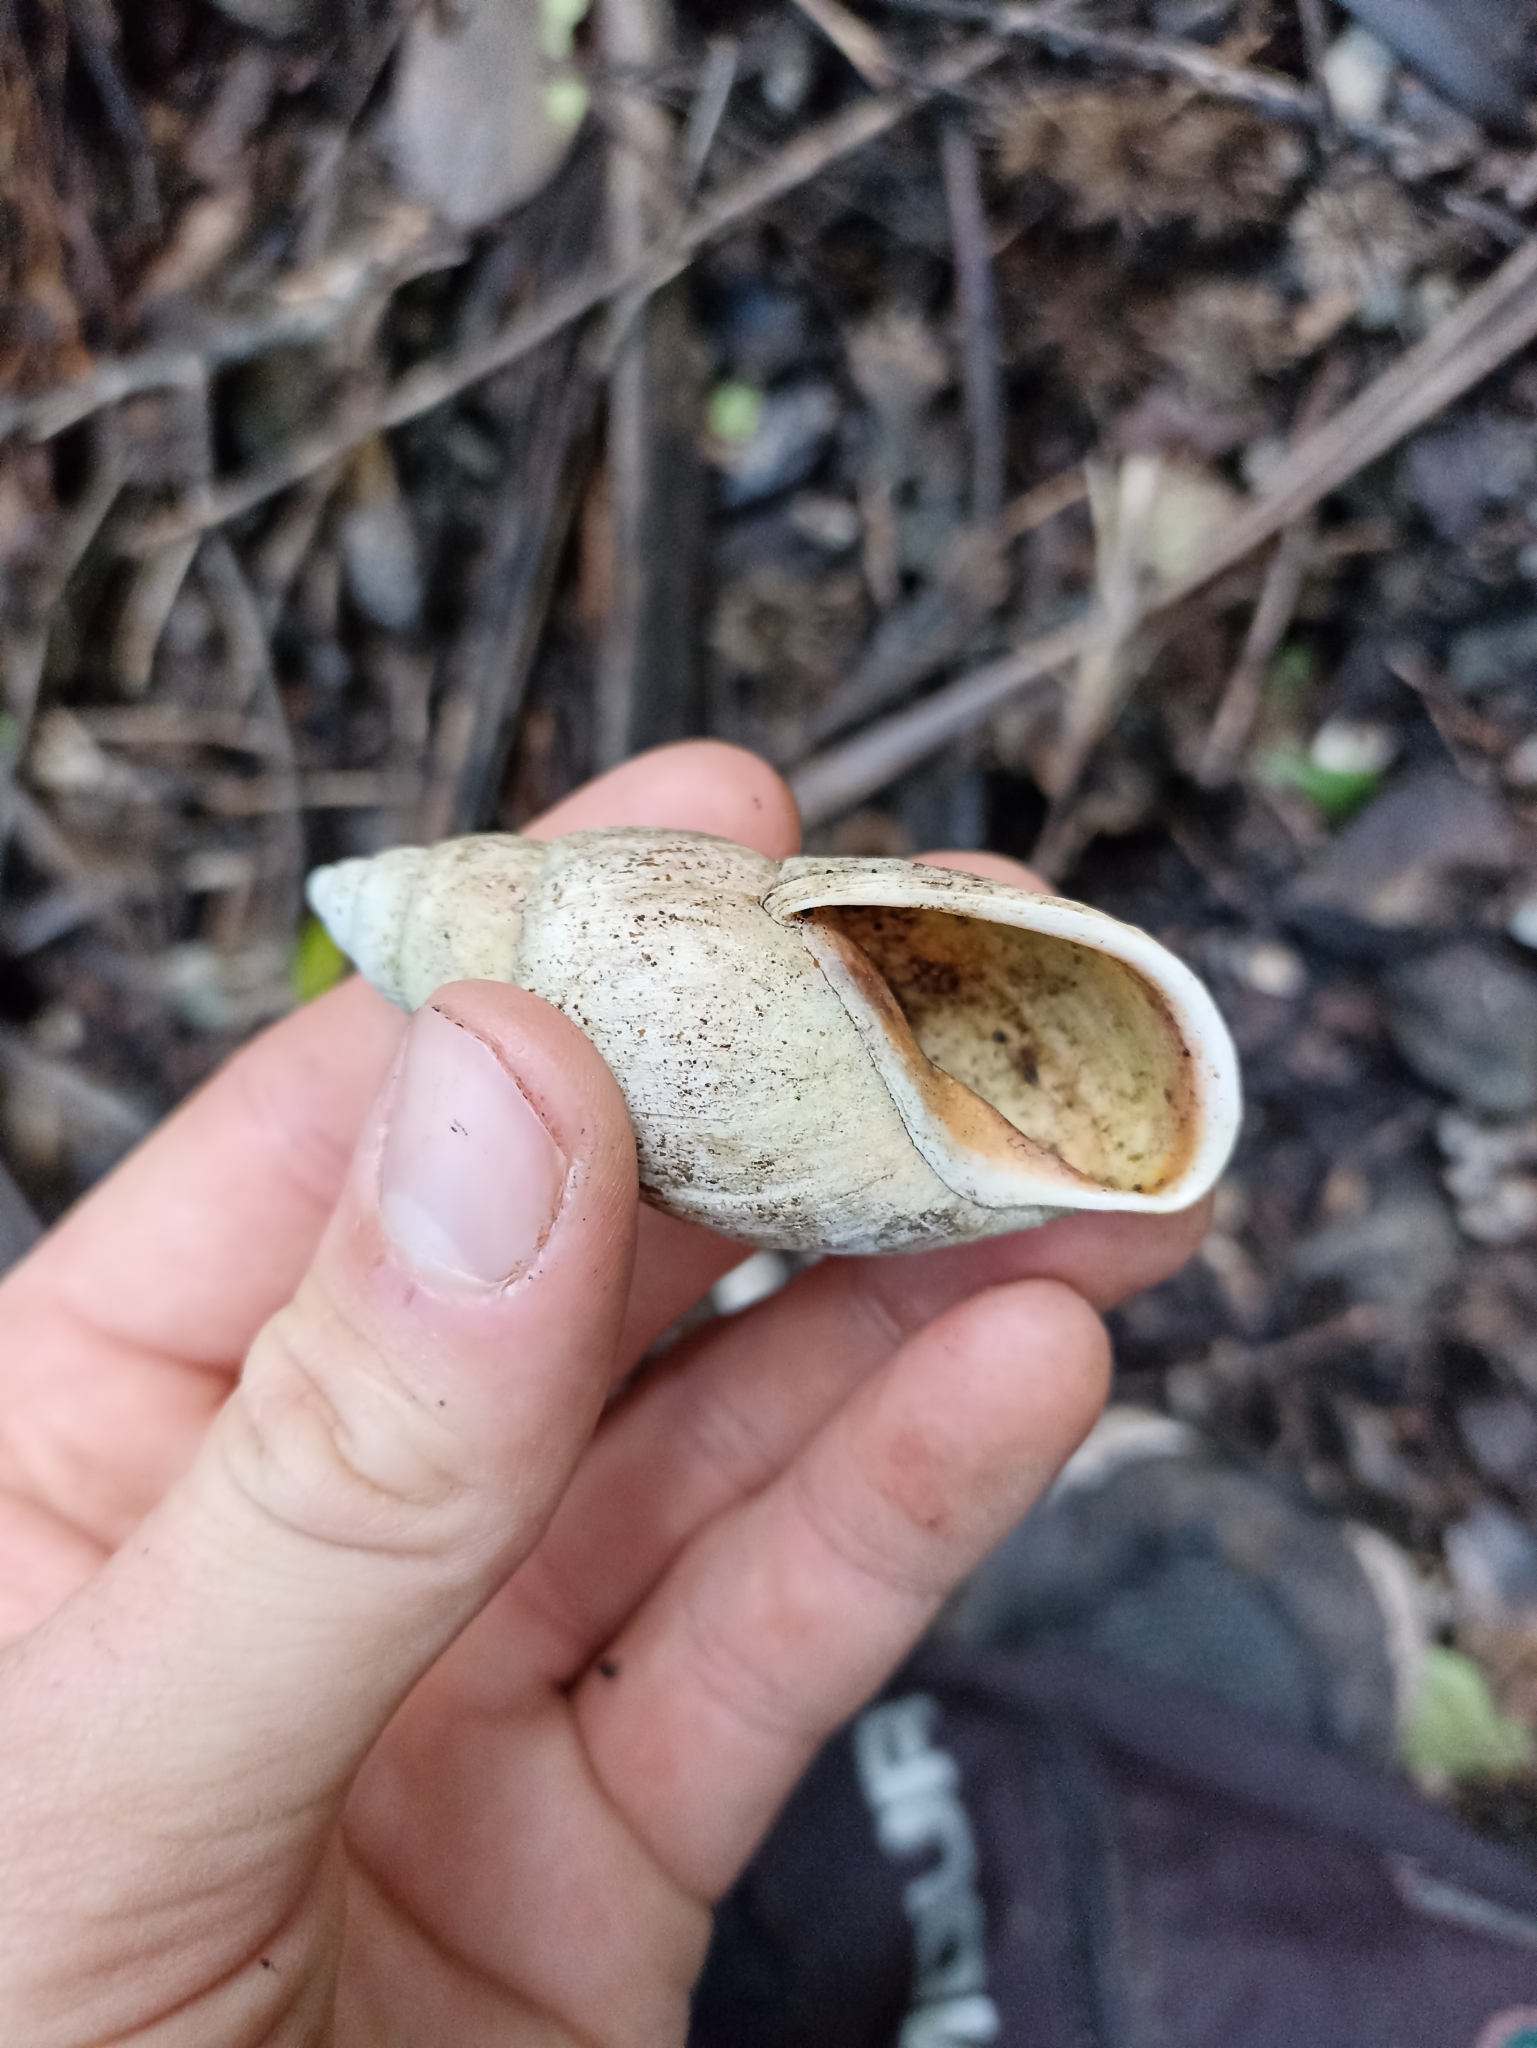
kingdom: Animalia
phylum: Mollusca
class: Gastropoda
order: Stylommatophora
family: Bothriembryontidae
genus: Maoristylus
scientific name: Maoristylus hongii
